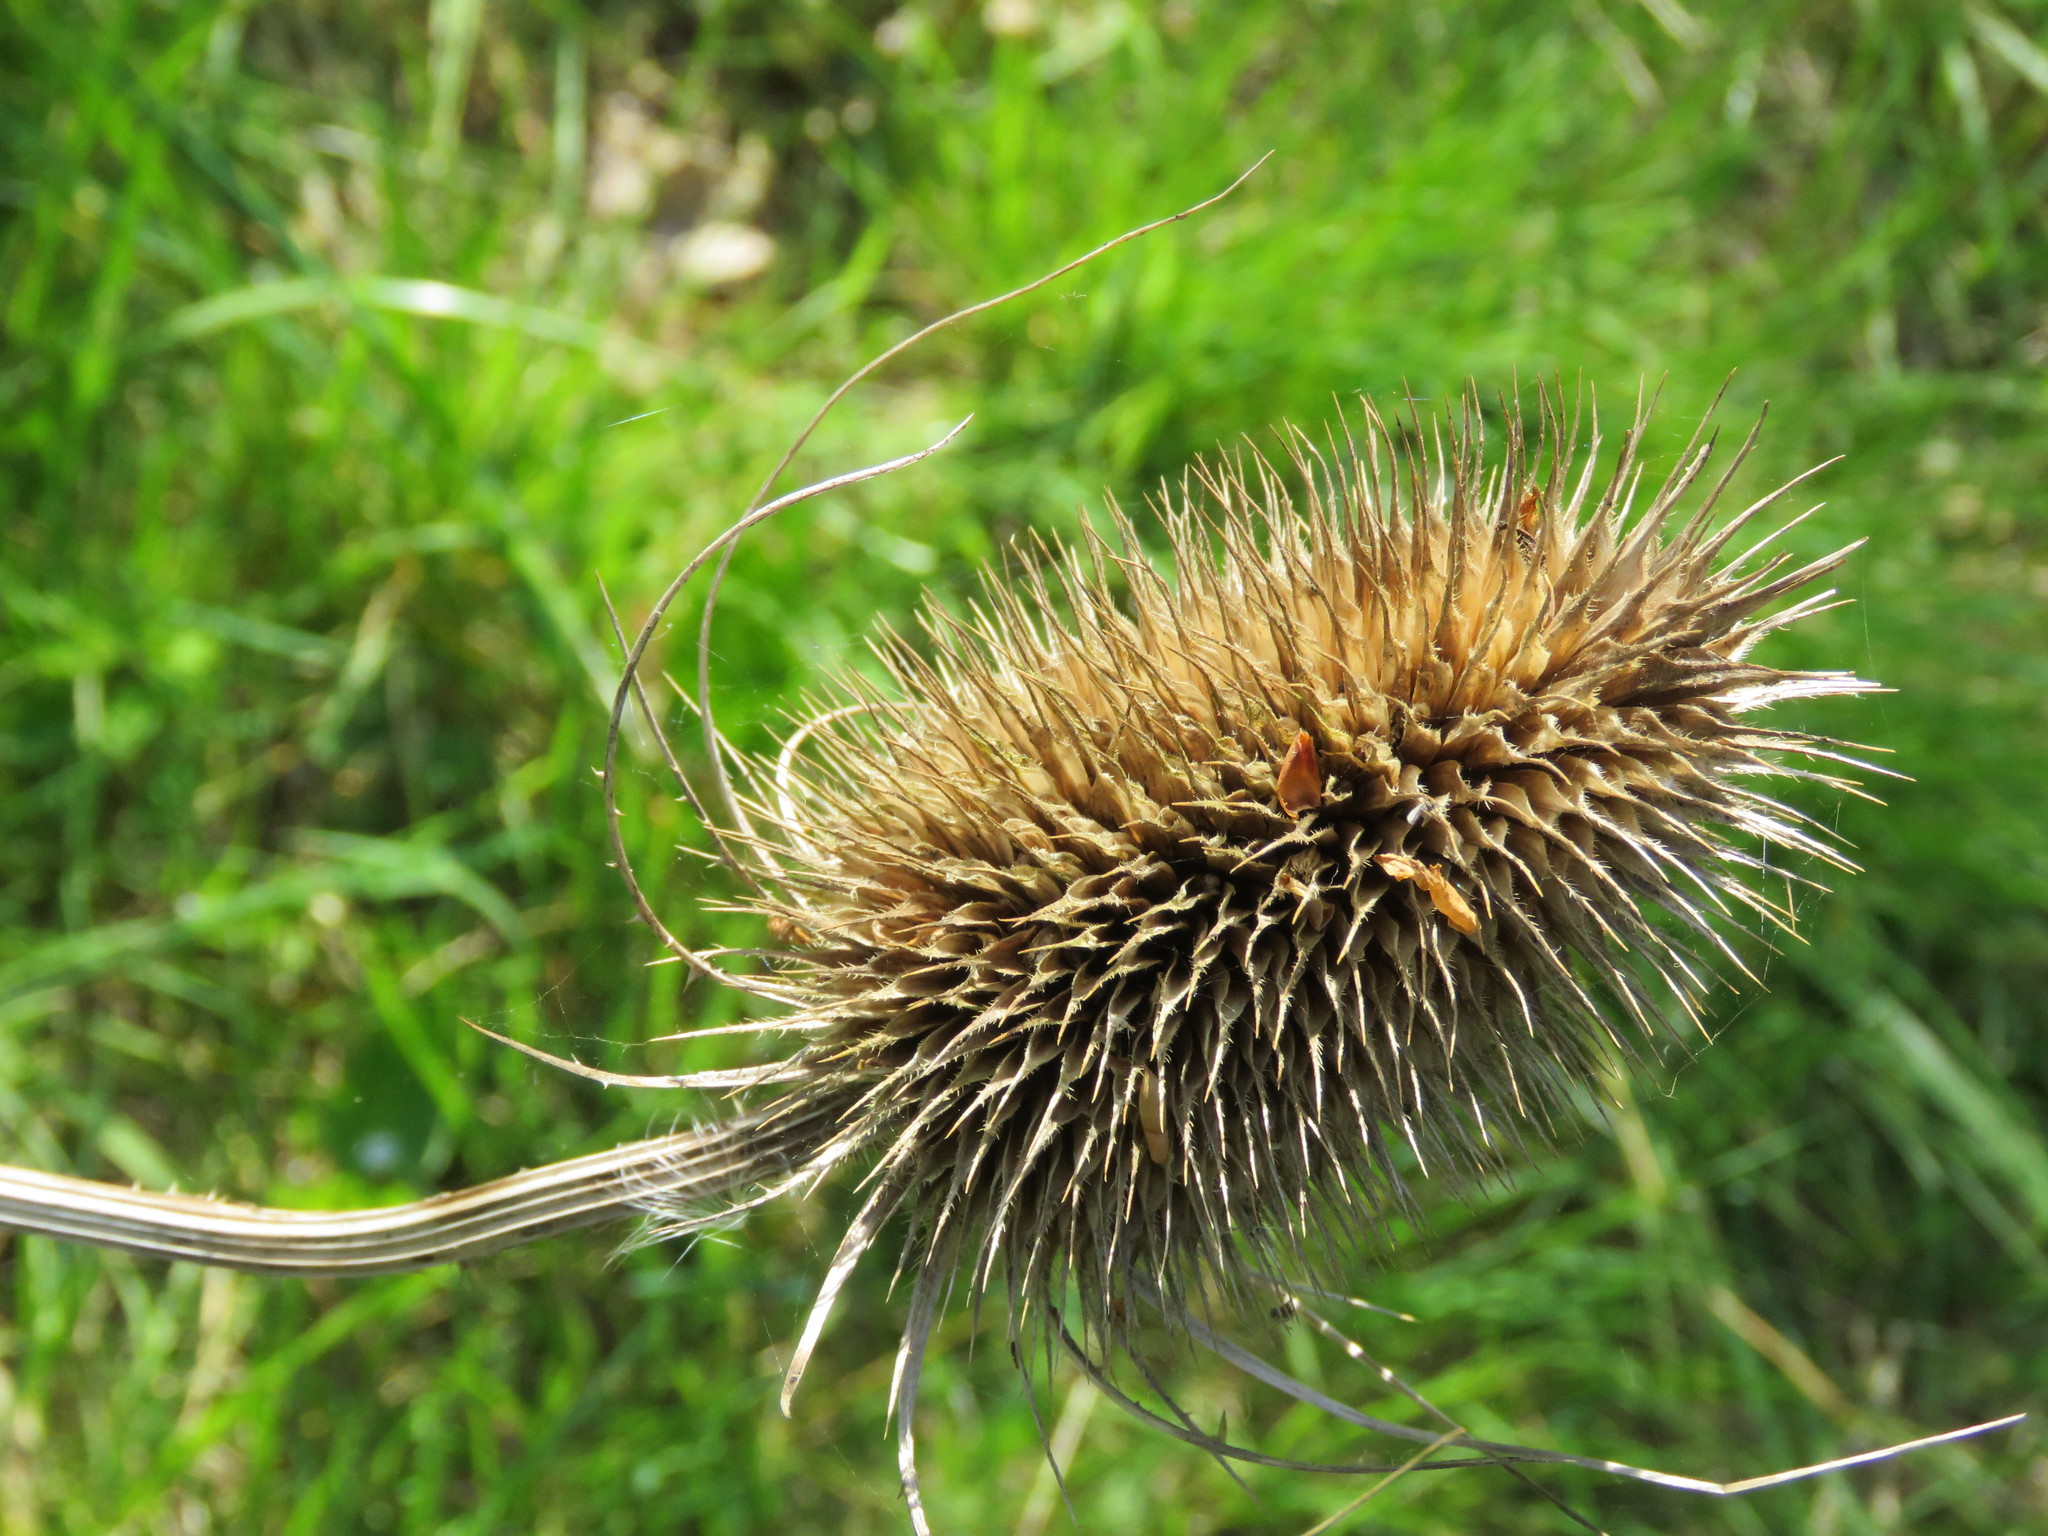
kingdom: Plantae
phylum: Tracheophyta
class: Magnoliopsida
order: Dipsacales
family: Caprifoliaceae
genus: Dipsacus
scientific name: Dipsacus fullonum
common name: Teasel
